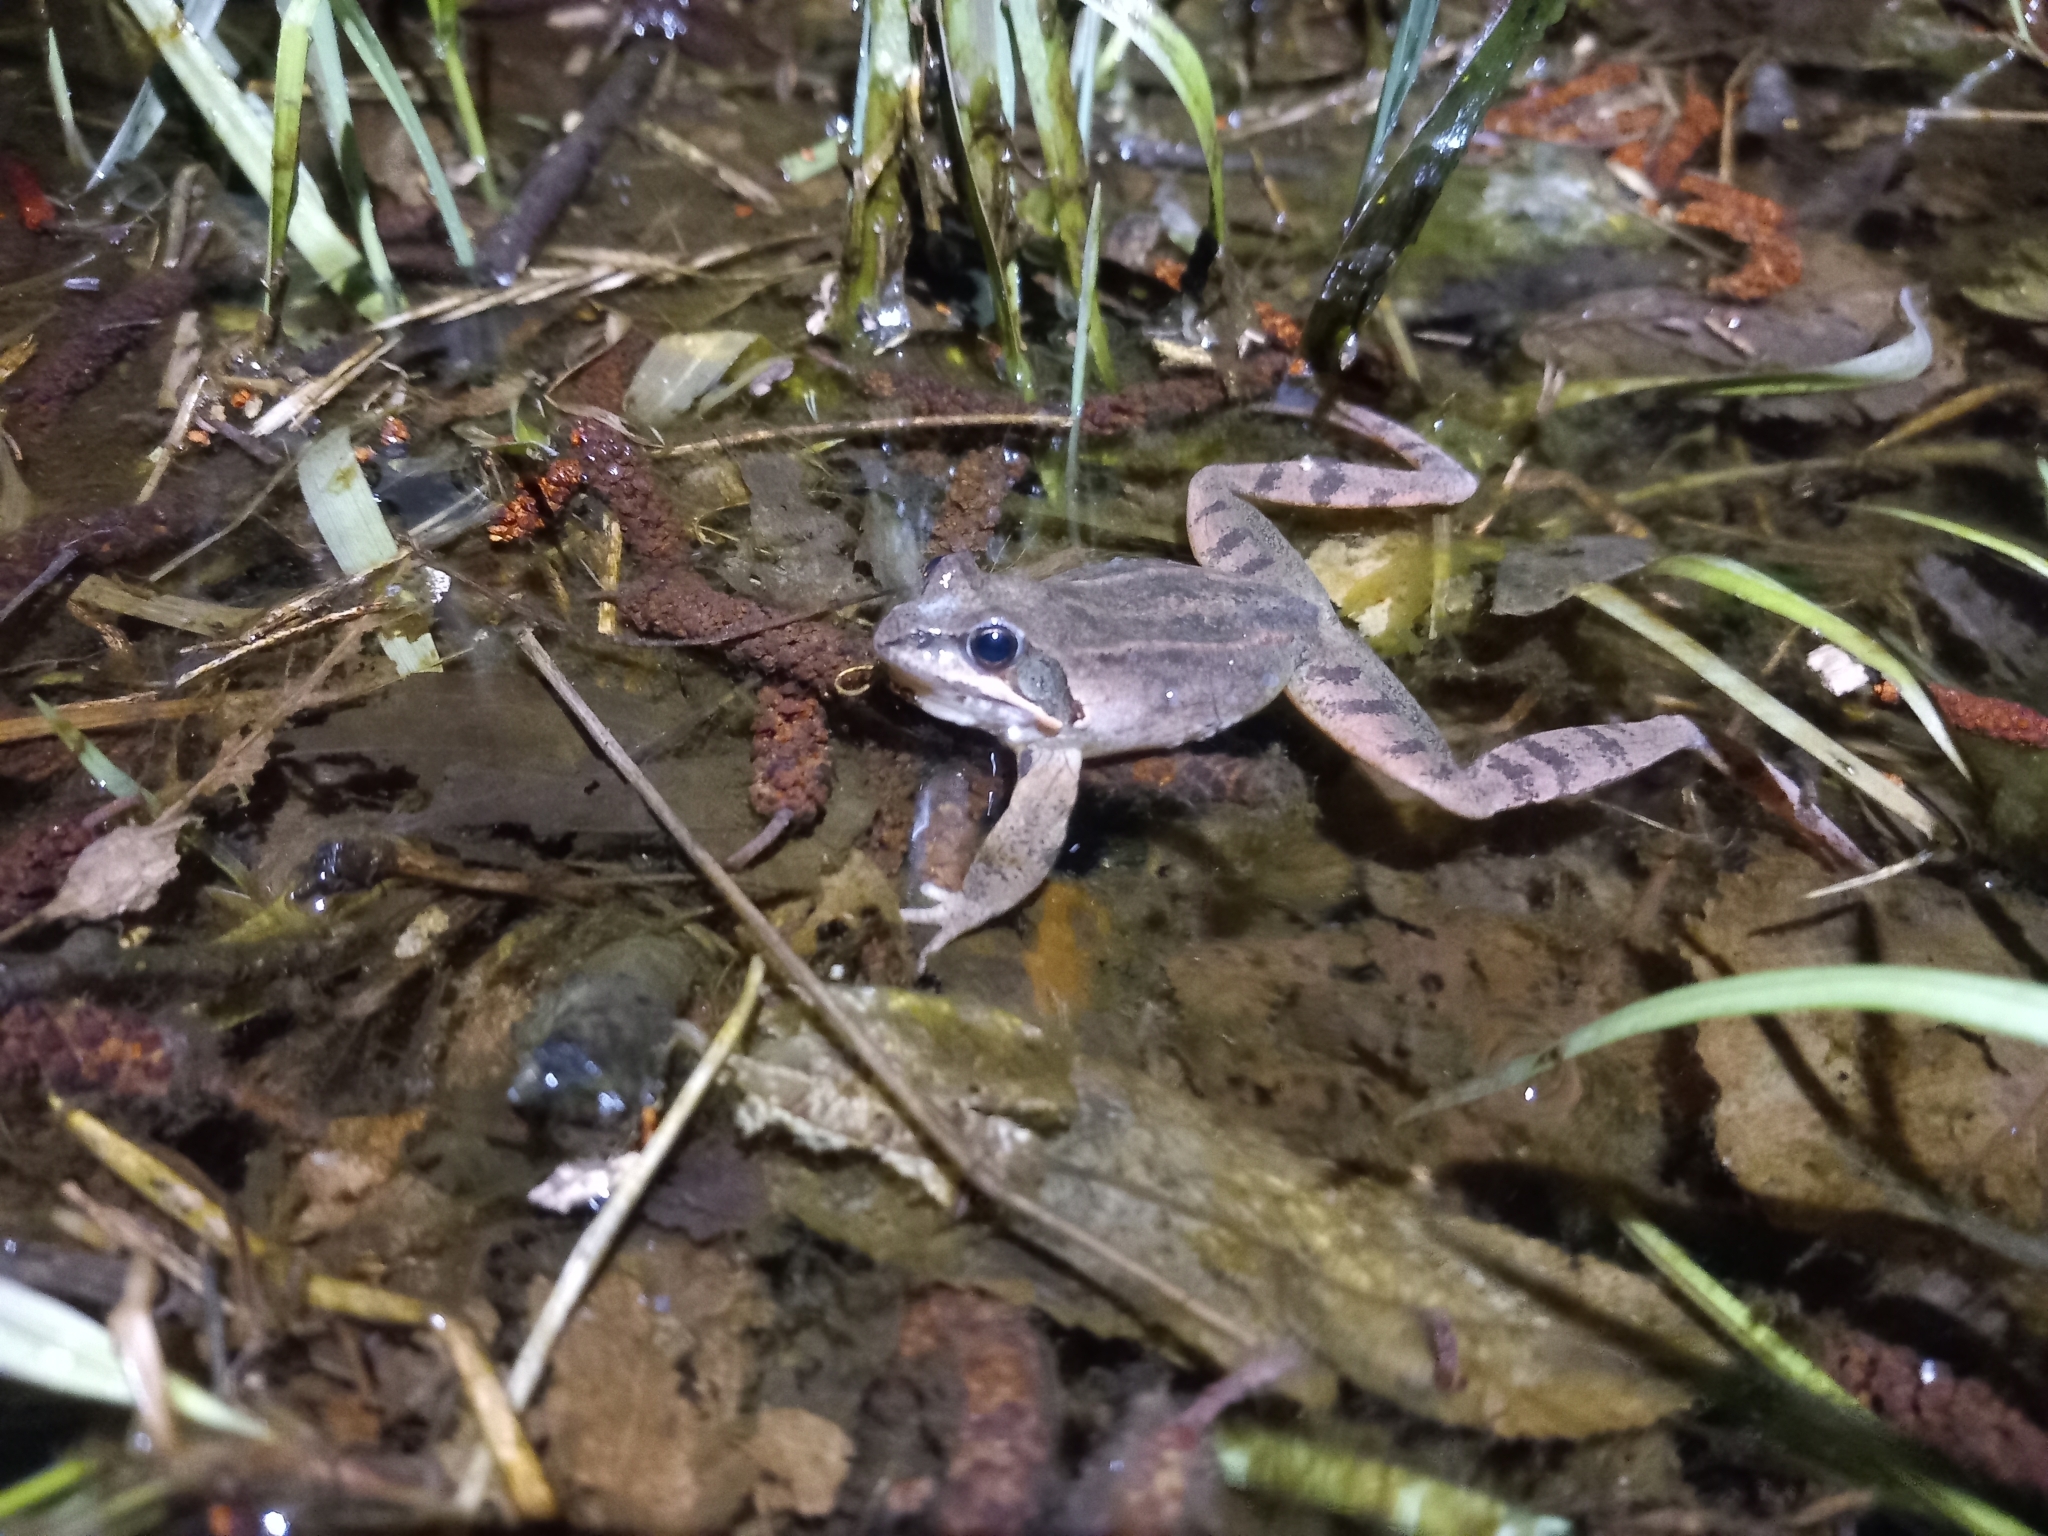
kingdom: Animalia
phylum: Chordata
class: Amphibia
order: Anura
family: Ranidae
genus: Rana
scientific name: Rana dalmatina
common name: Agile frog
